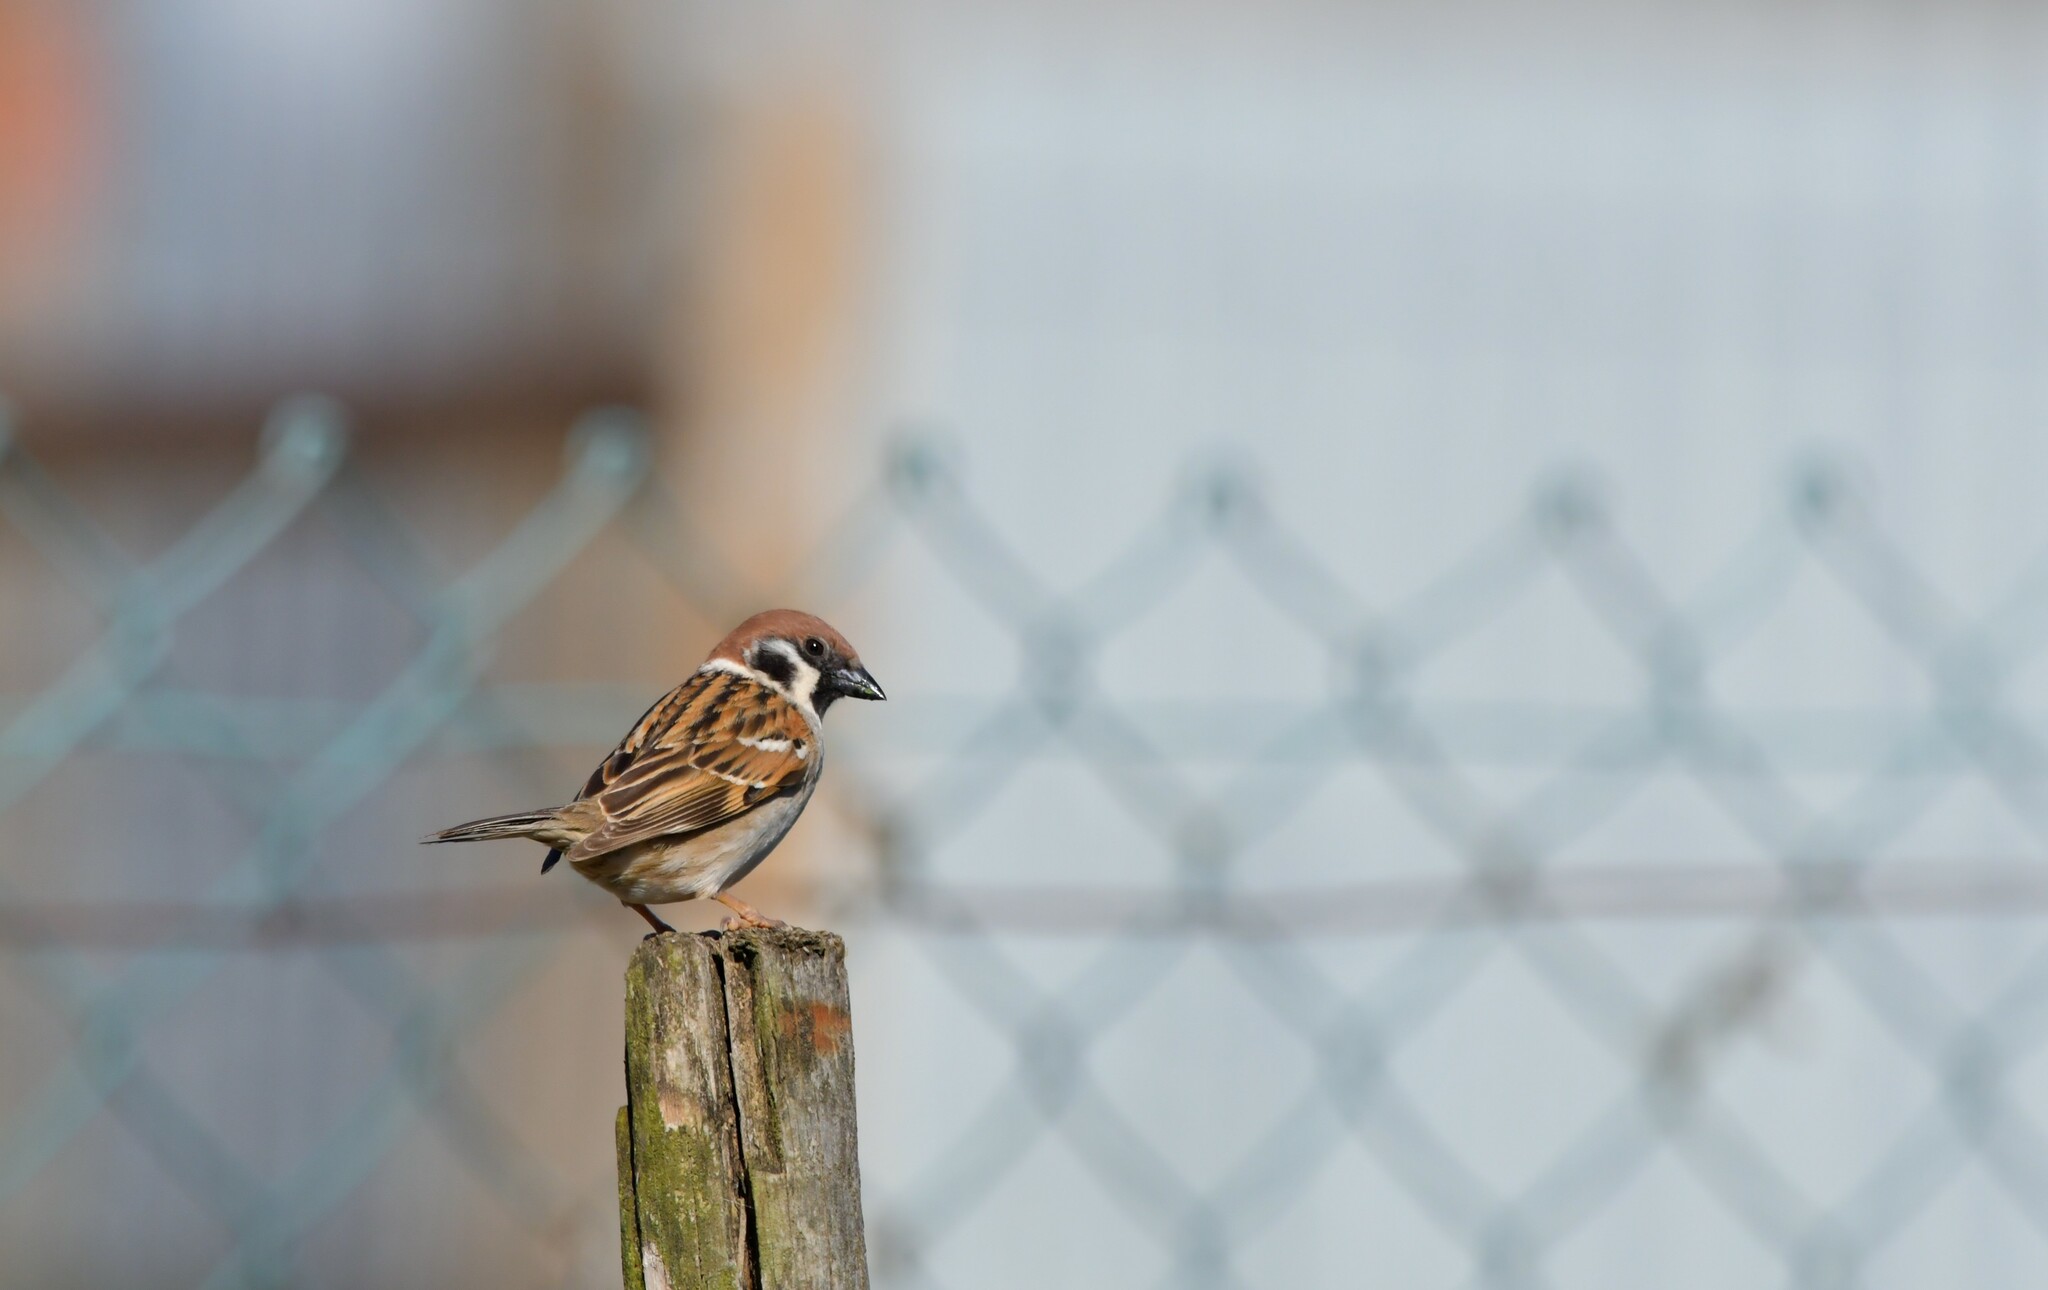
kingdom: Animalia
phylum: Chordata
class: Aves
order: Passeriformes
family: Passeridae
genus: Passer
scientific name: Passer montanus
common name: Eurasian tree sparrow
